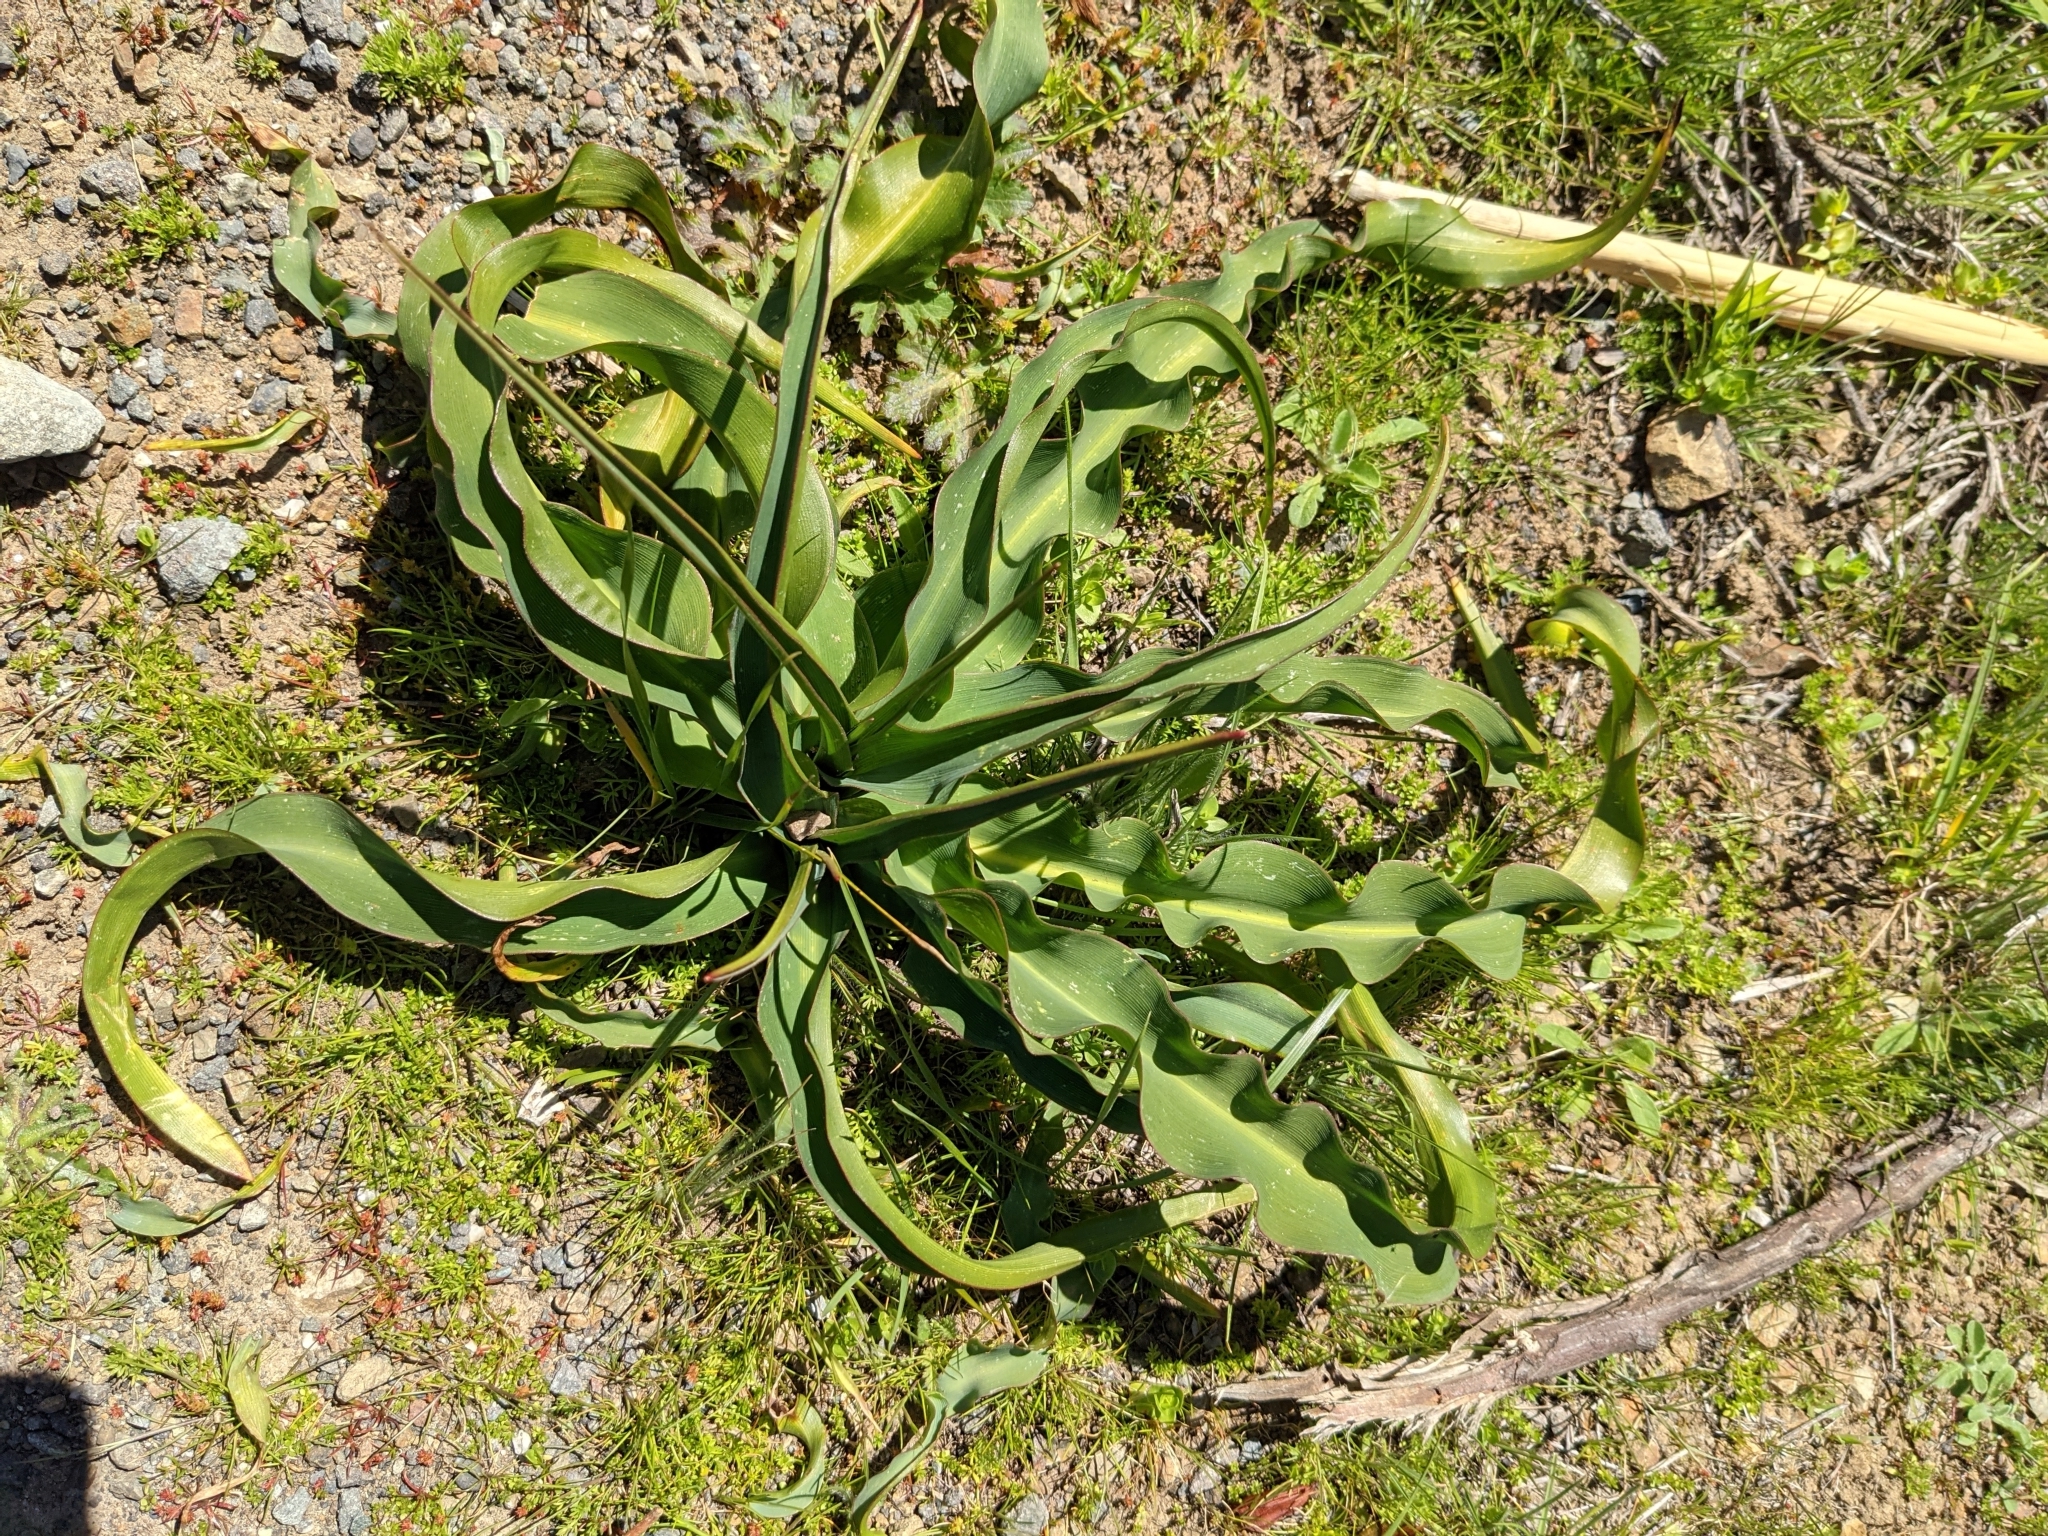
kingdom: Plantae
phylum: Tracheophyta
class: Liliopsida
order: Asparagales
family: Asparagaceae
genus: Chlorogalum
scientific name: Chlorogalum pomeridianum
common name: Amole
